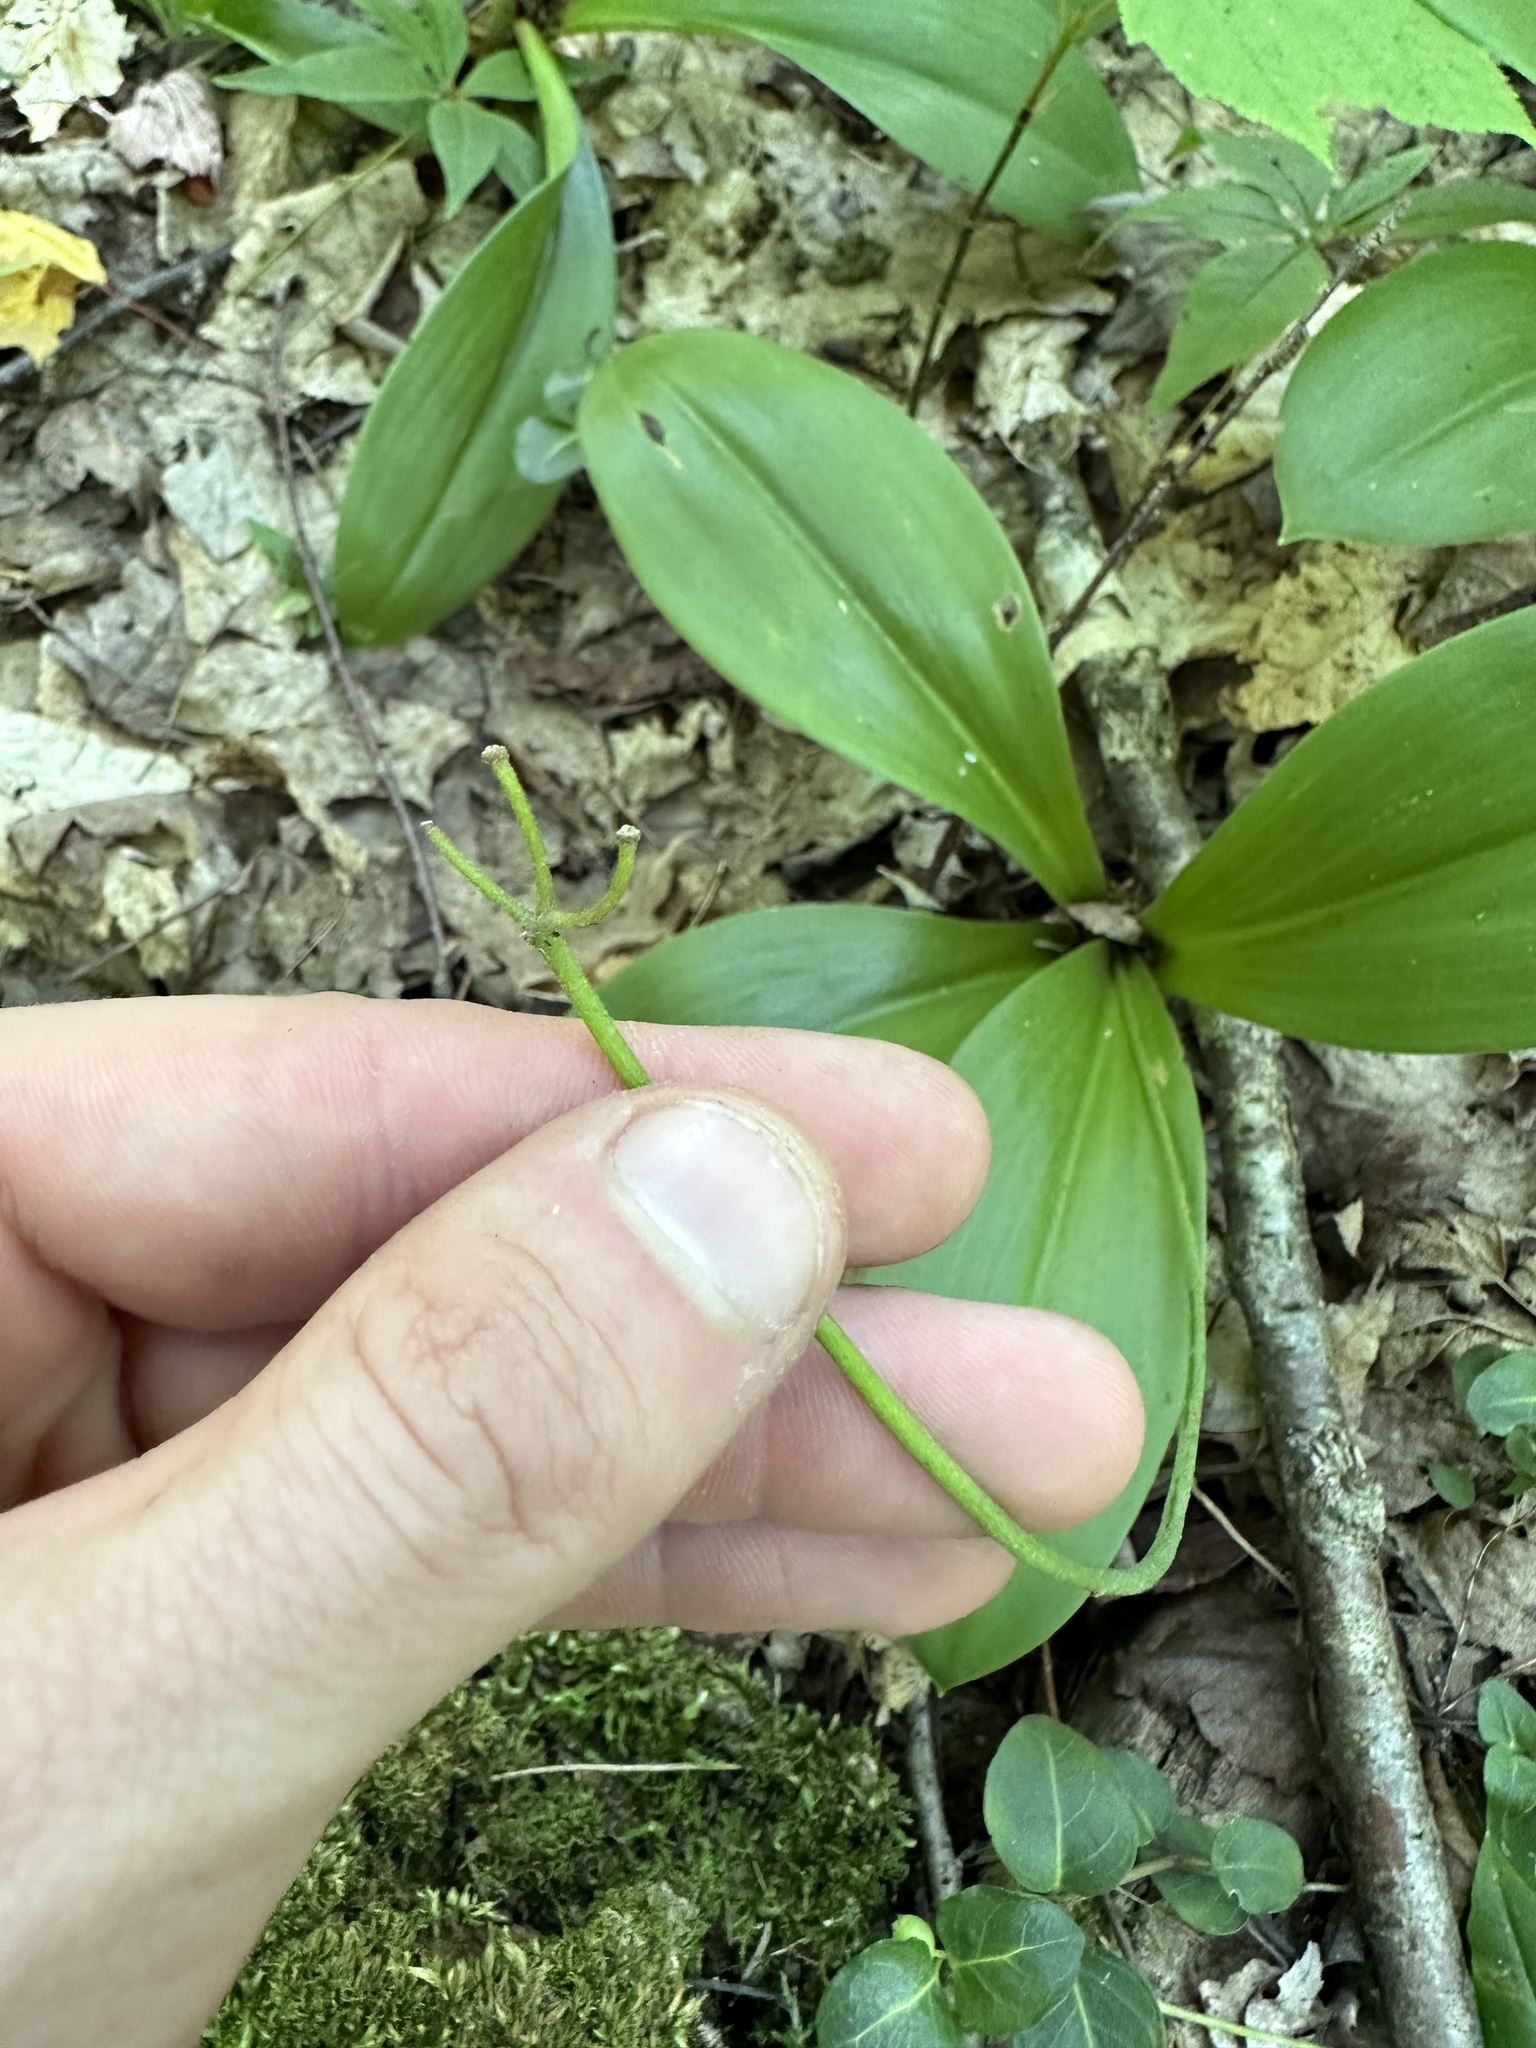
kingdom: Plantae
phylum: Tracheophyta
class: Liliopsida
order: Liliales
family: Liliaceae
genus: Clintonia
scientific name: Clintonia borealis
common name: Yellow clintonia
